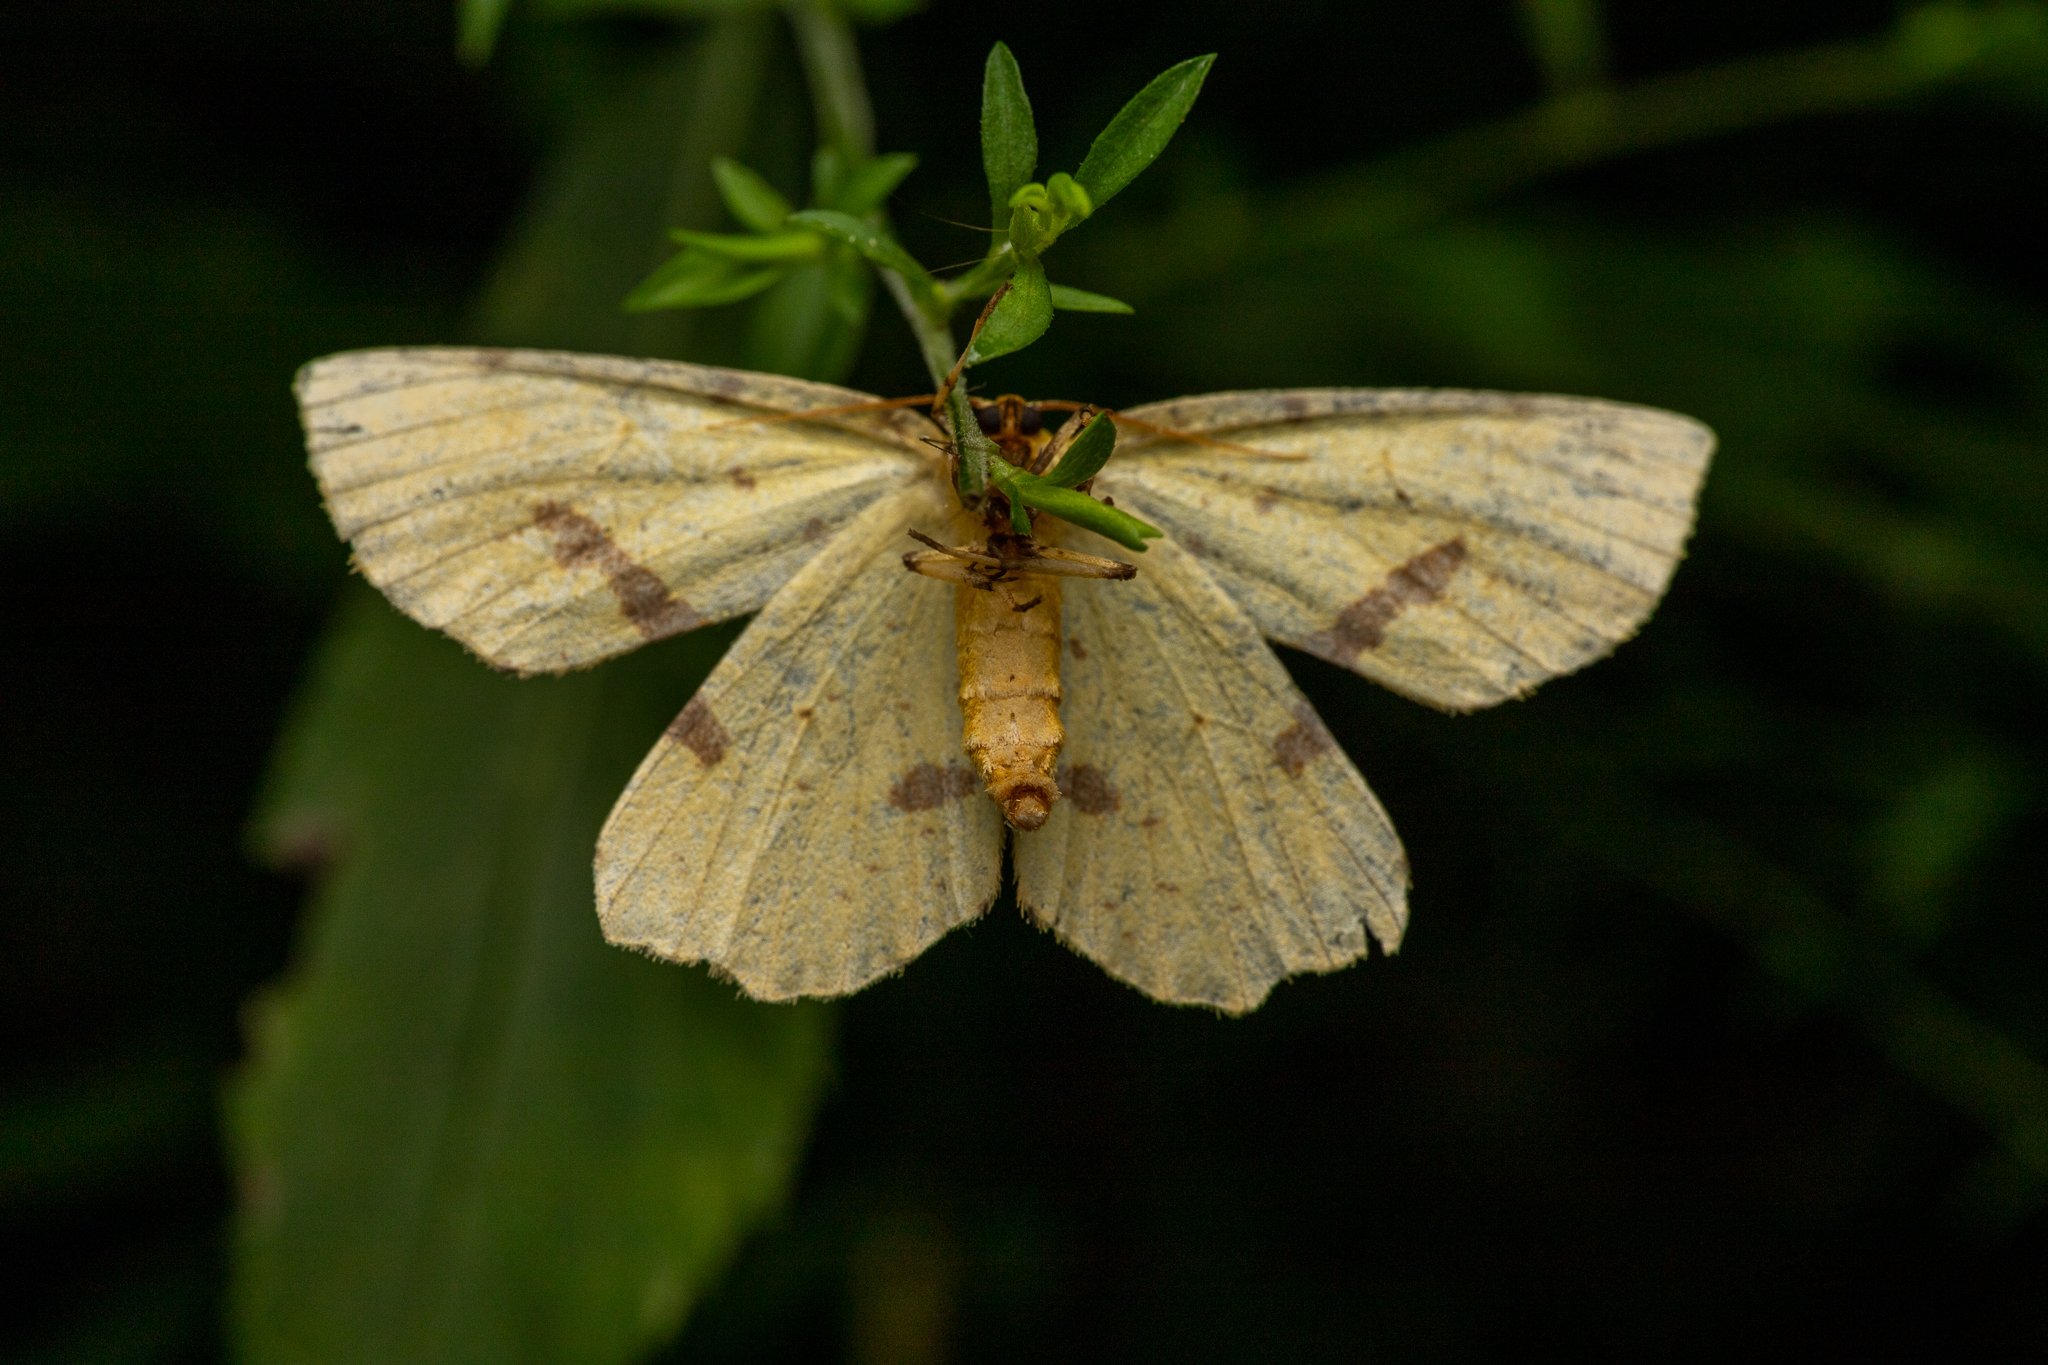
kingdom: Animalia
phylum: Arthropoda
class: Insecta
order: Lepidoptera
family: Geometridae
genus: Xanthotype
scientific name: Xanthotype
